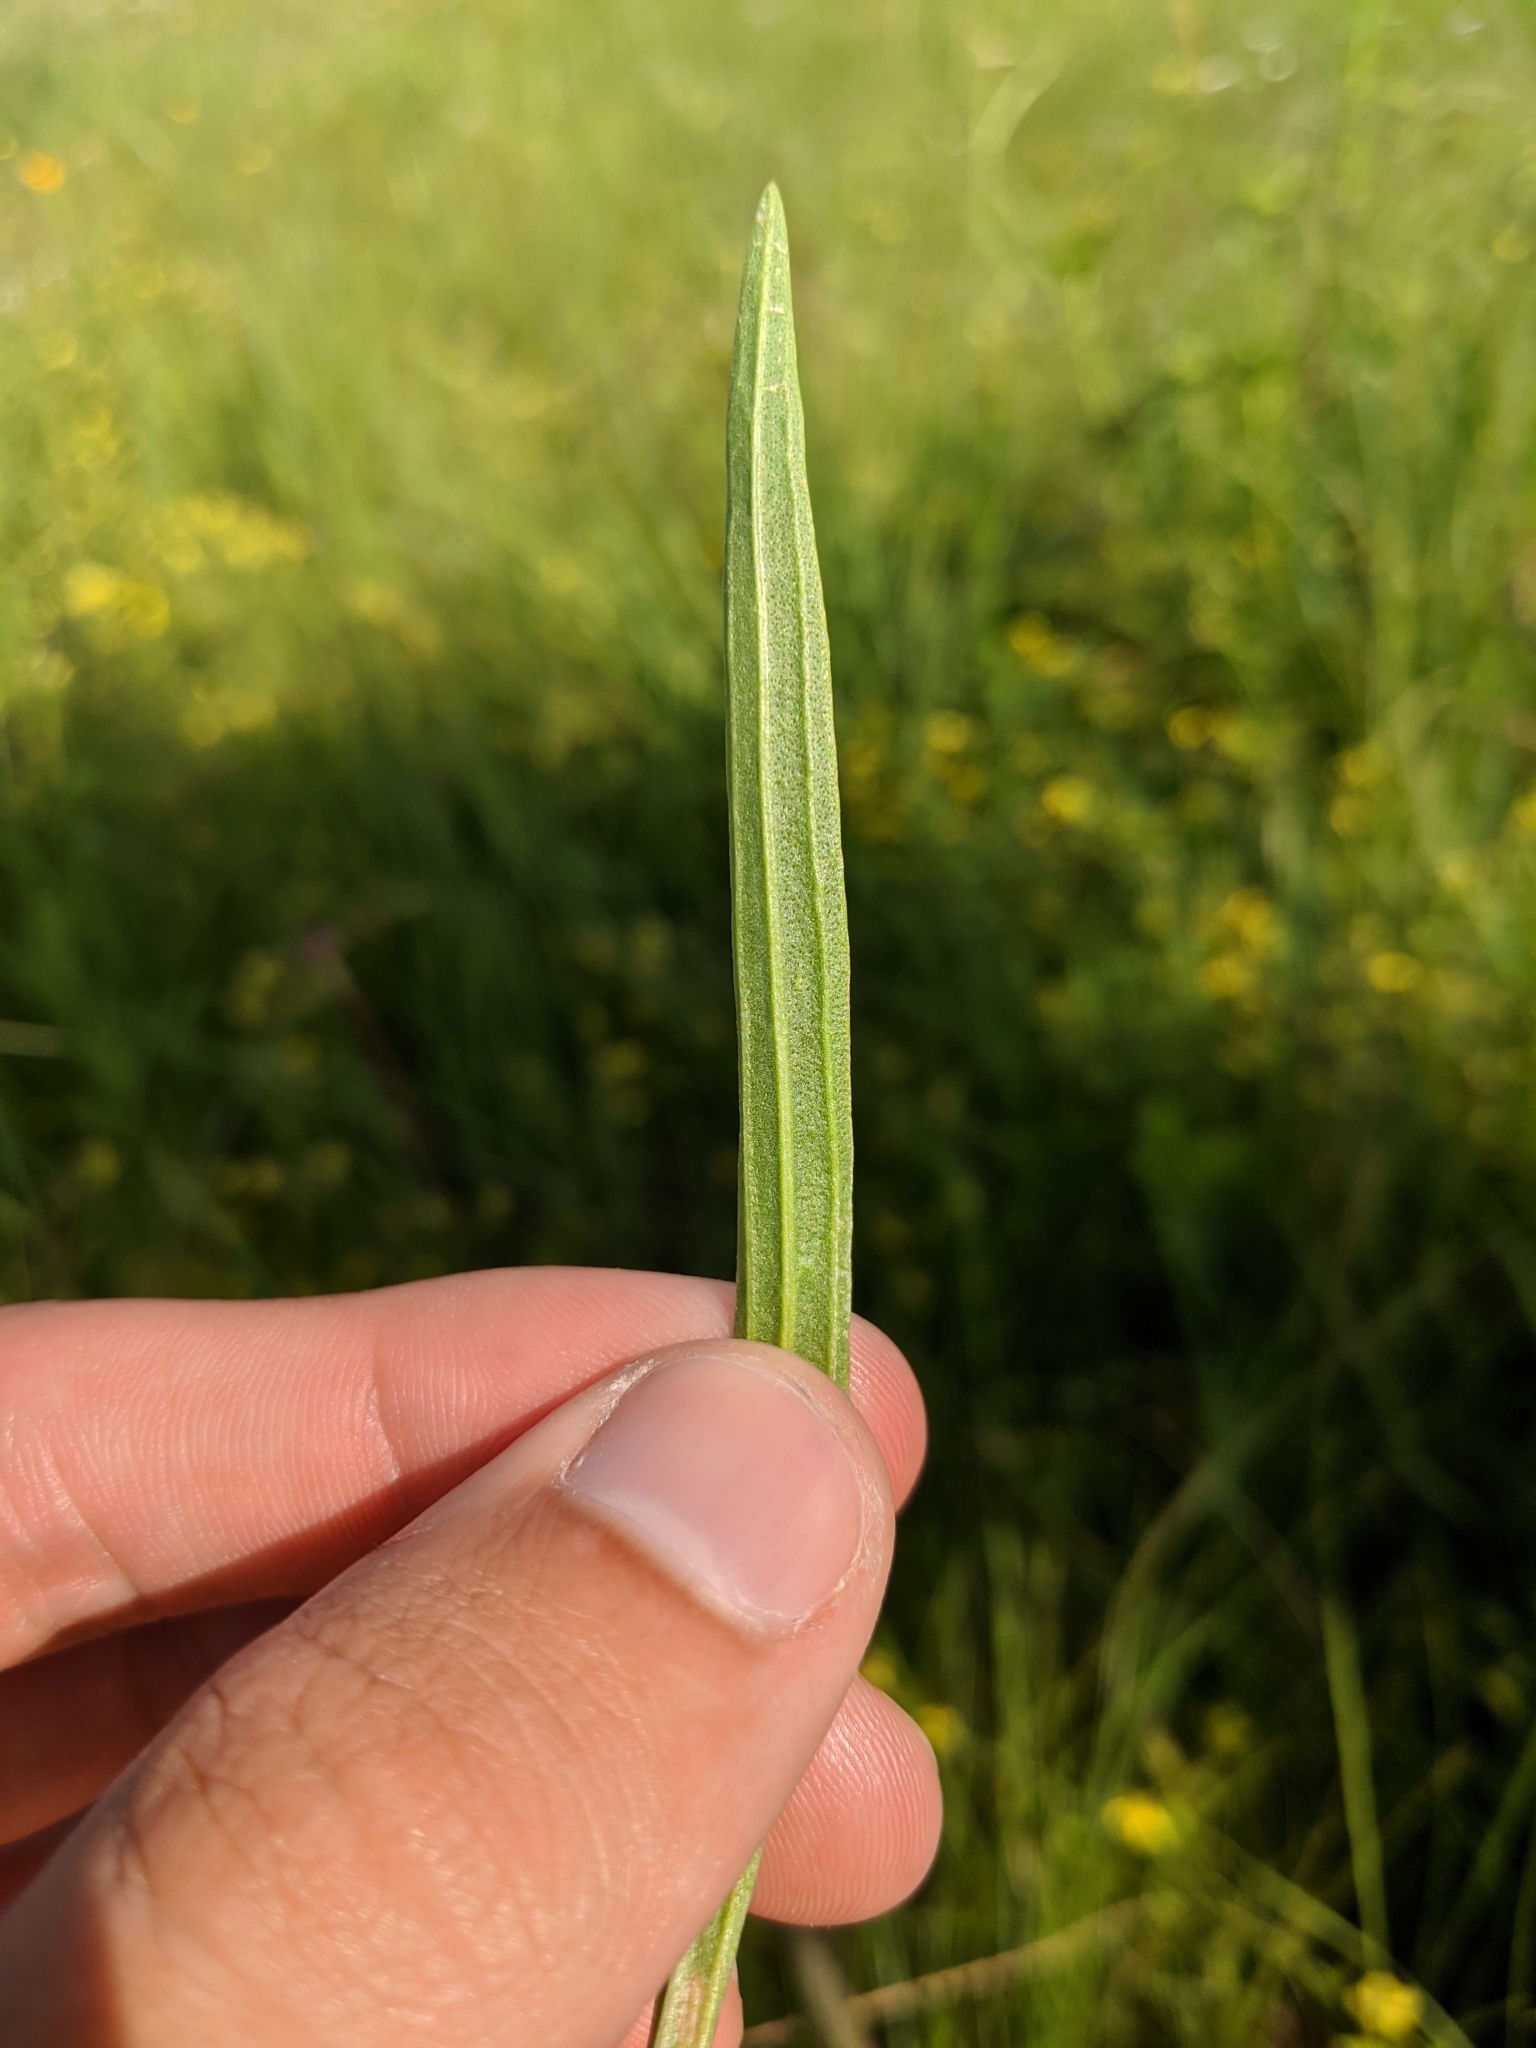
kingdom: Plantae
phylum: Tracheophyta
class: Magnoliopsida
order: Asterales
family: Asteraceae
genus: Marshallia
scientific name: Marshallia caespitosa
